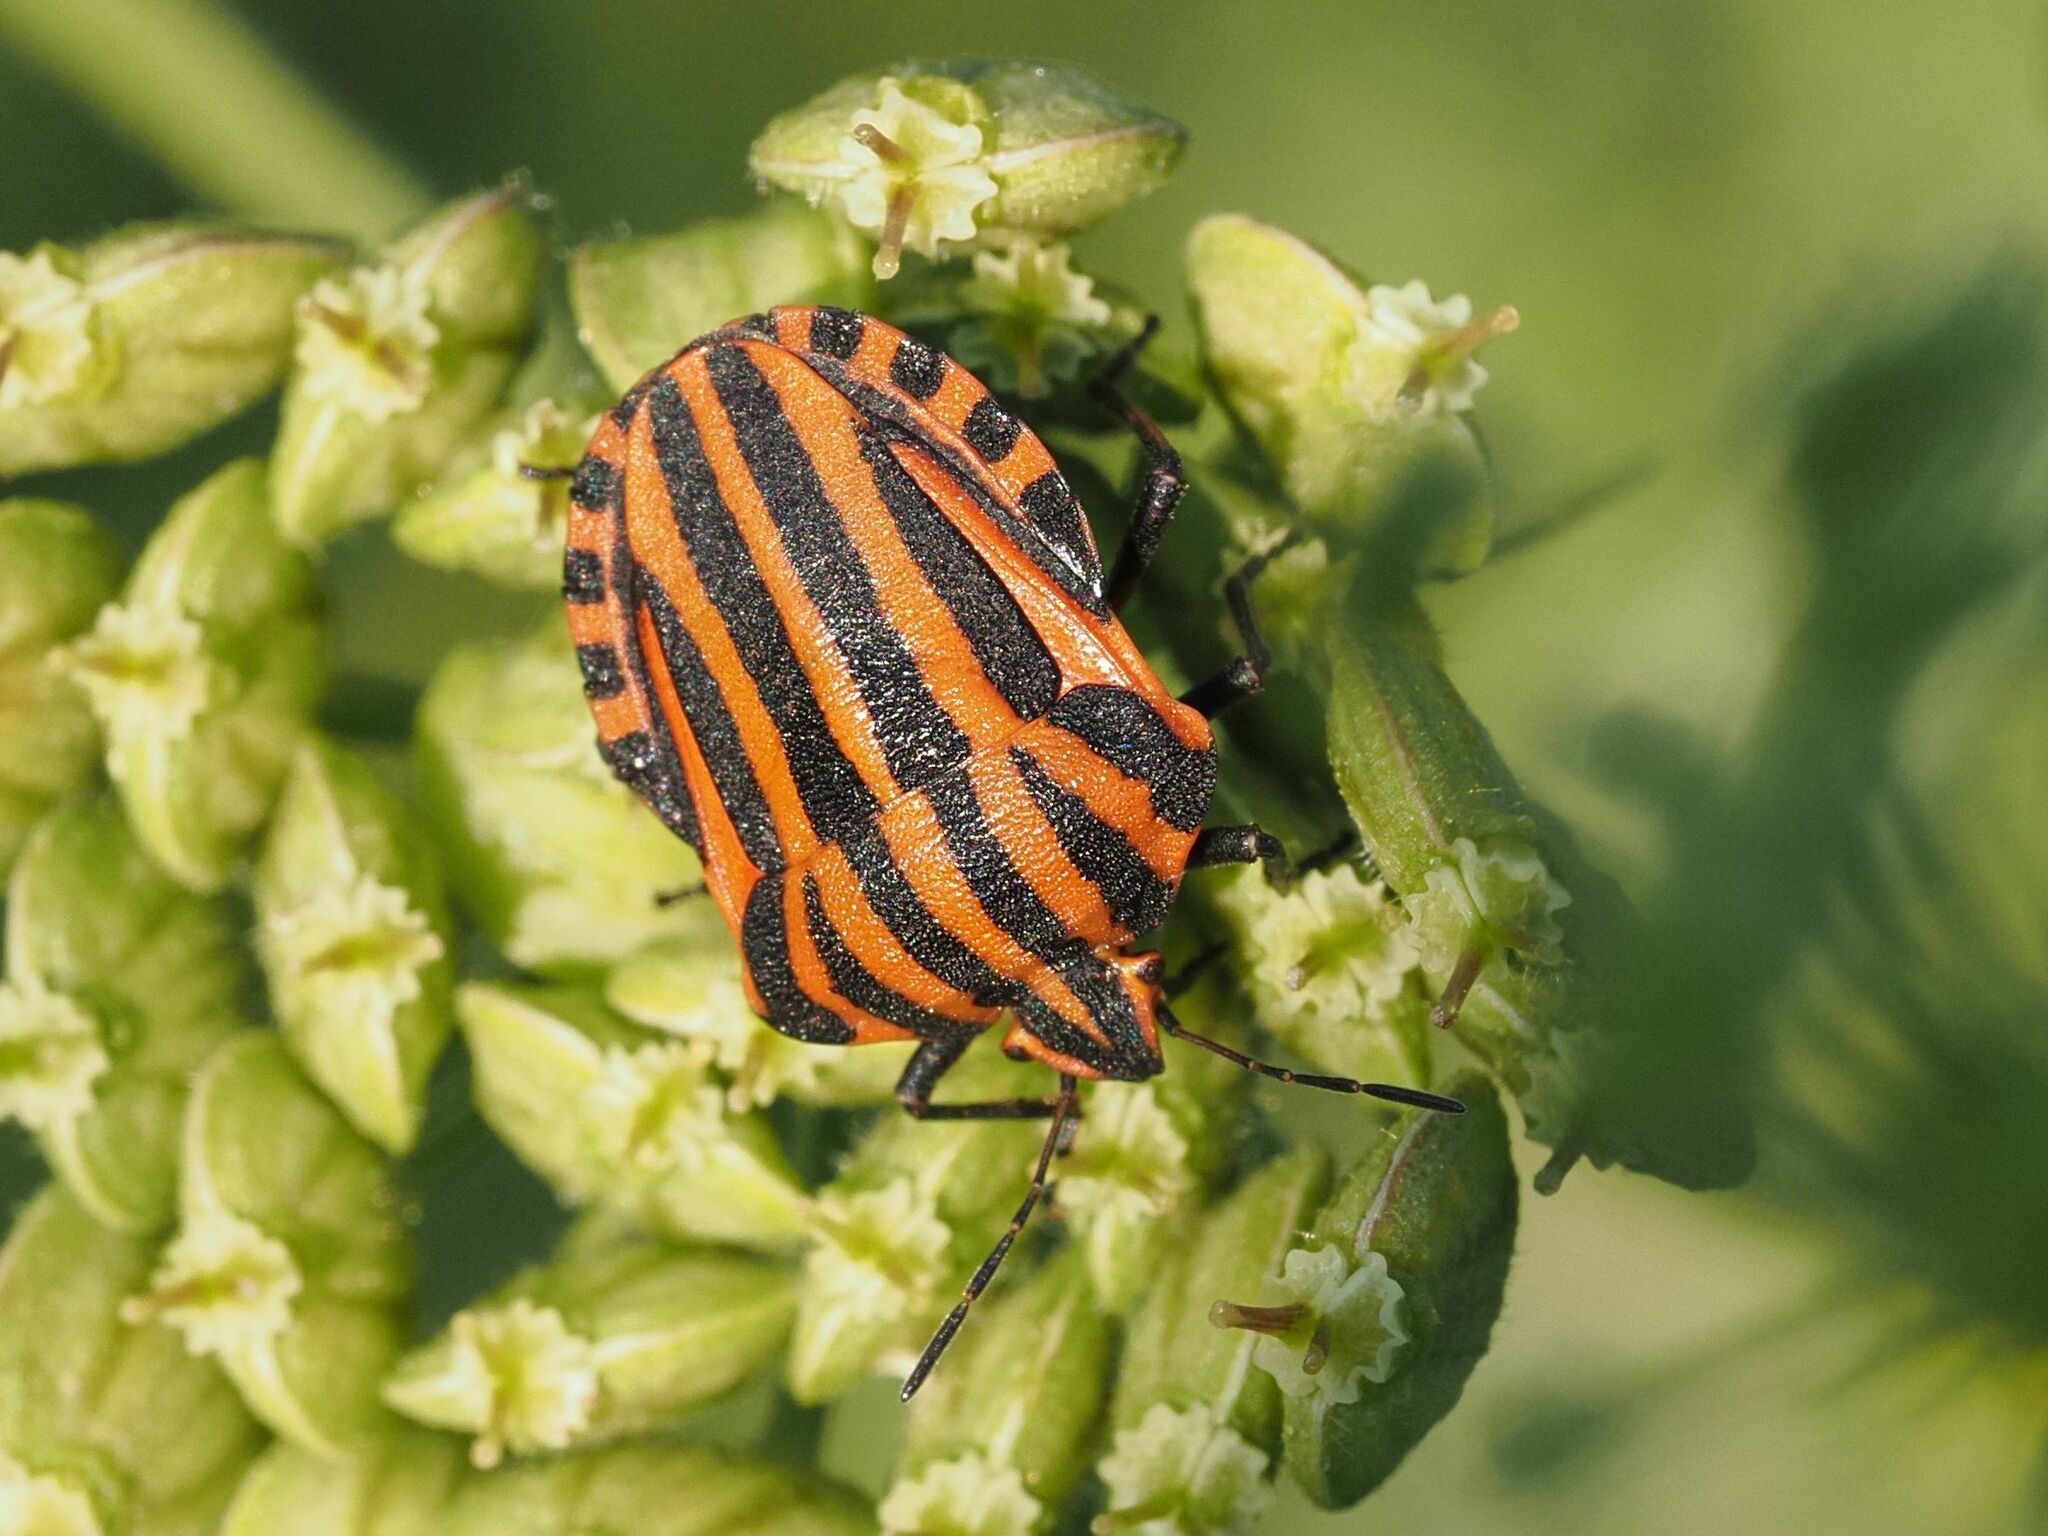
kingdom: Animalia
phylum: Arthropoda
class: Insecta
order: Hemiptera
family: Pentatomidae
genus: Graphosoma
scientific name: Graphosoma italicum
